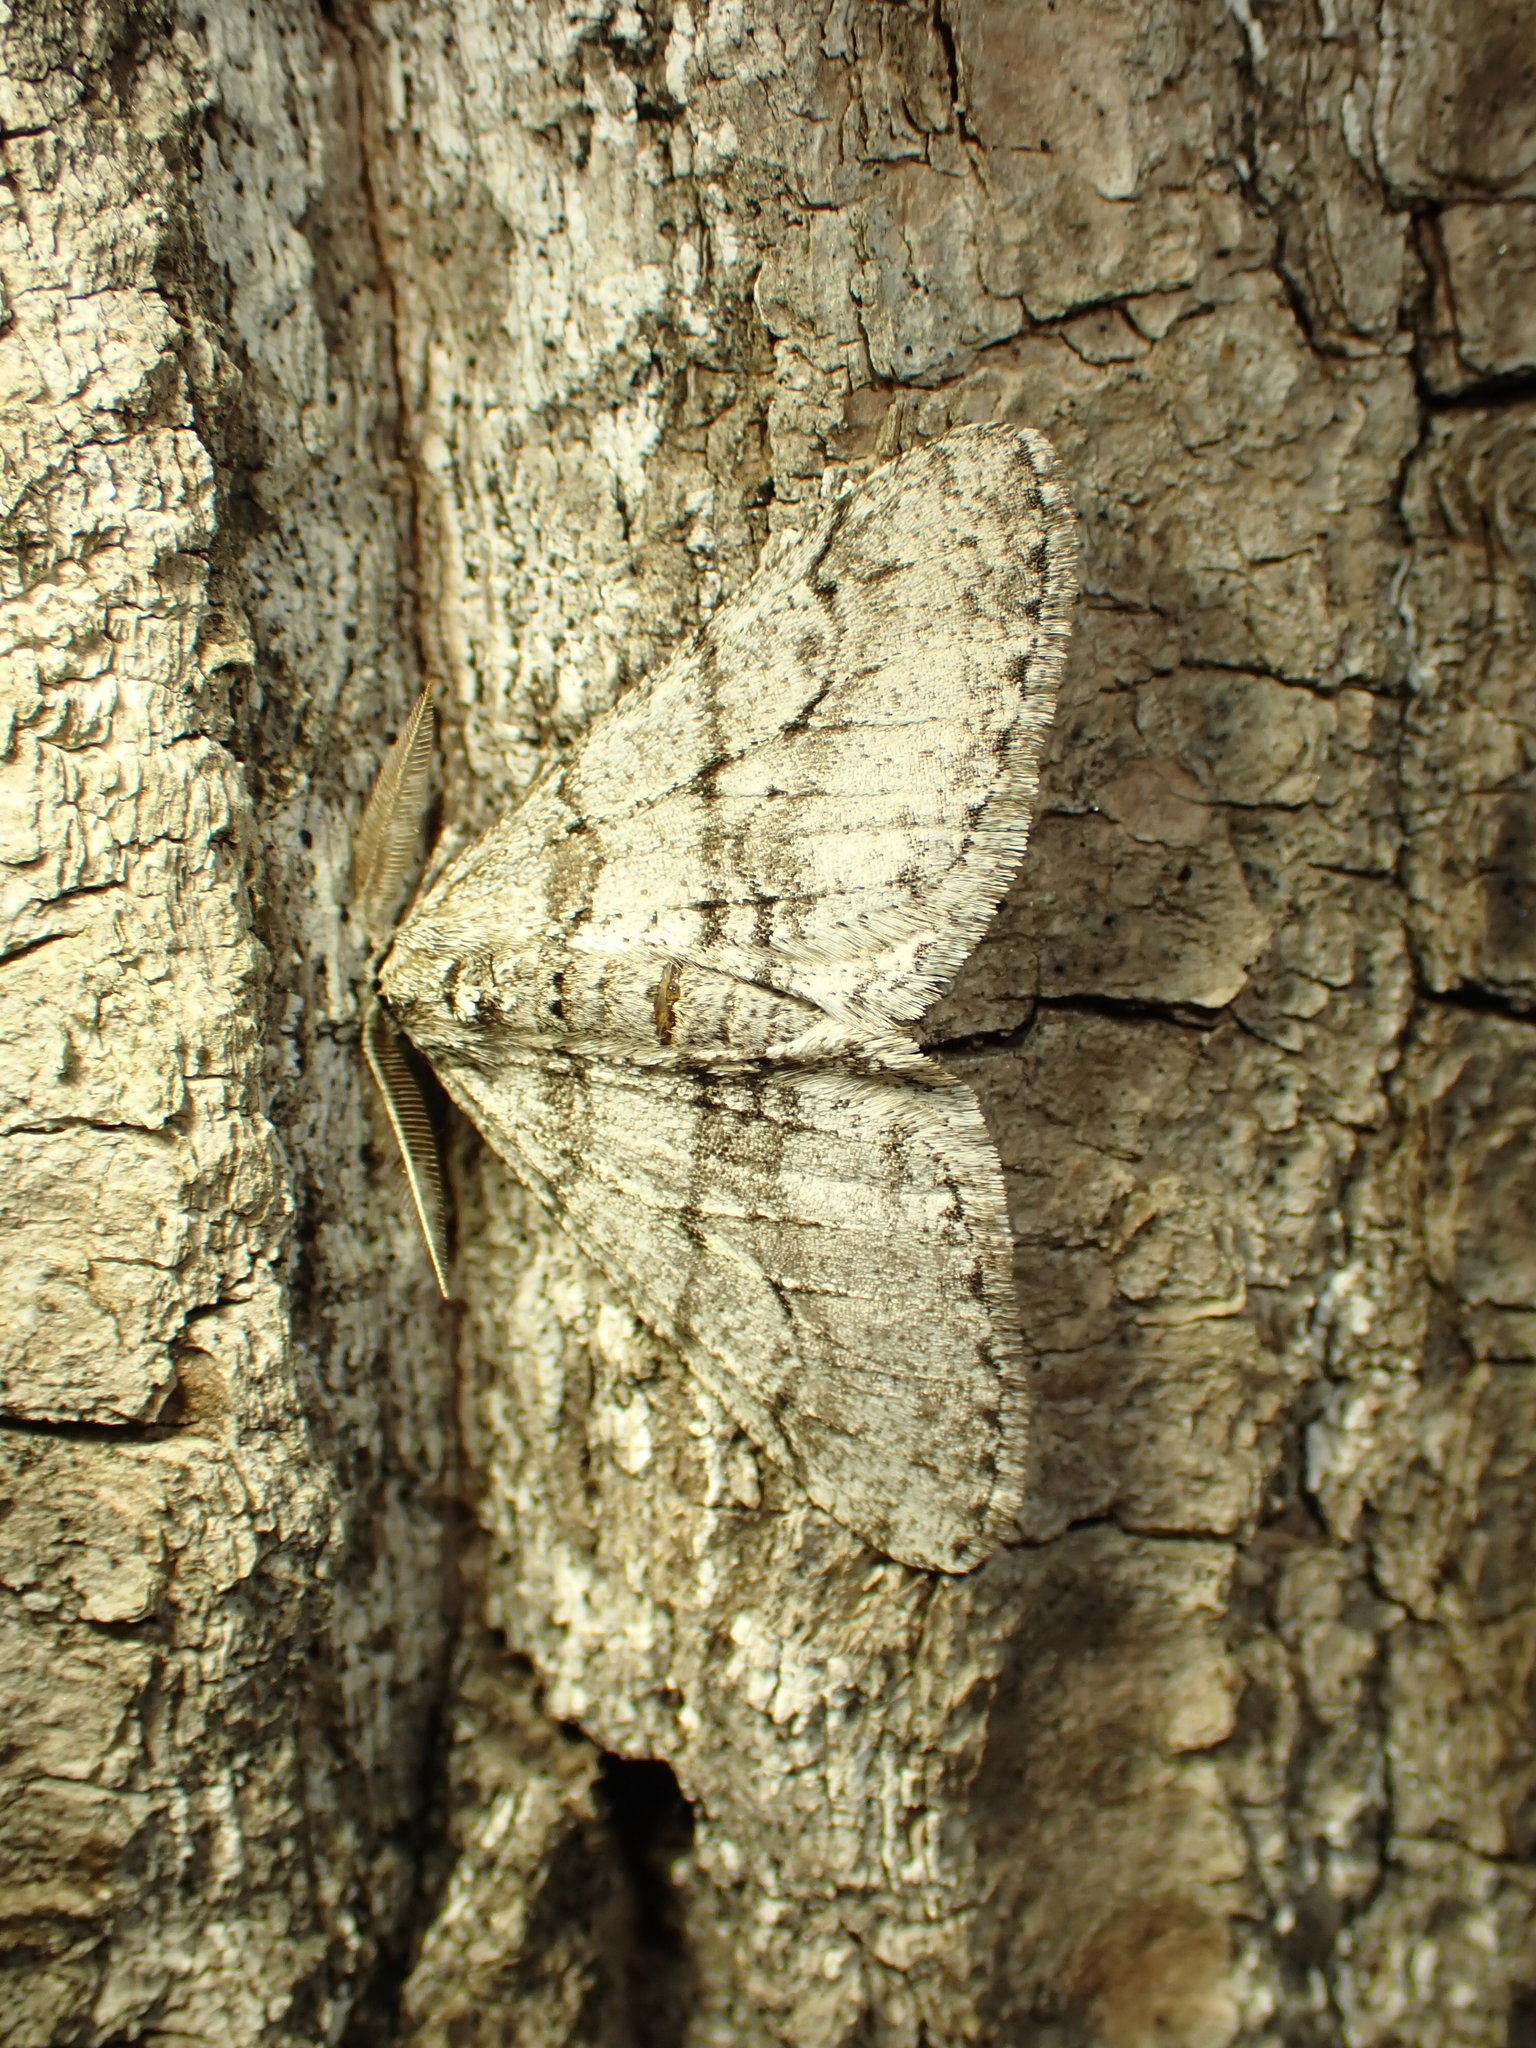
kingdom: Animalia
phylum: Arthropoda
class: Insecta
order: Lepidoptera
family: Geometridae
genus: Phigalia
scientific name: Phigalia titea
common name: Spiny looper
